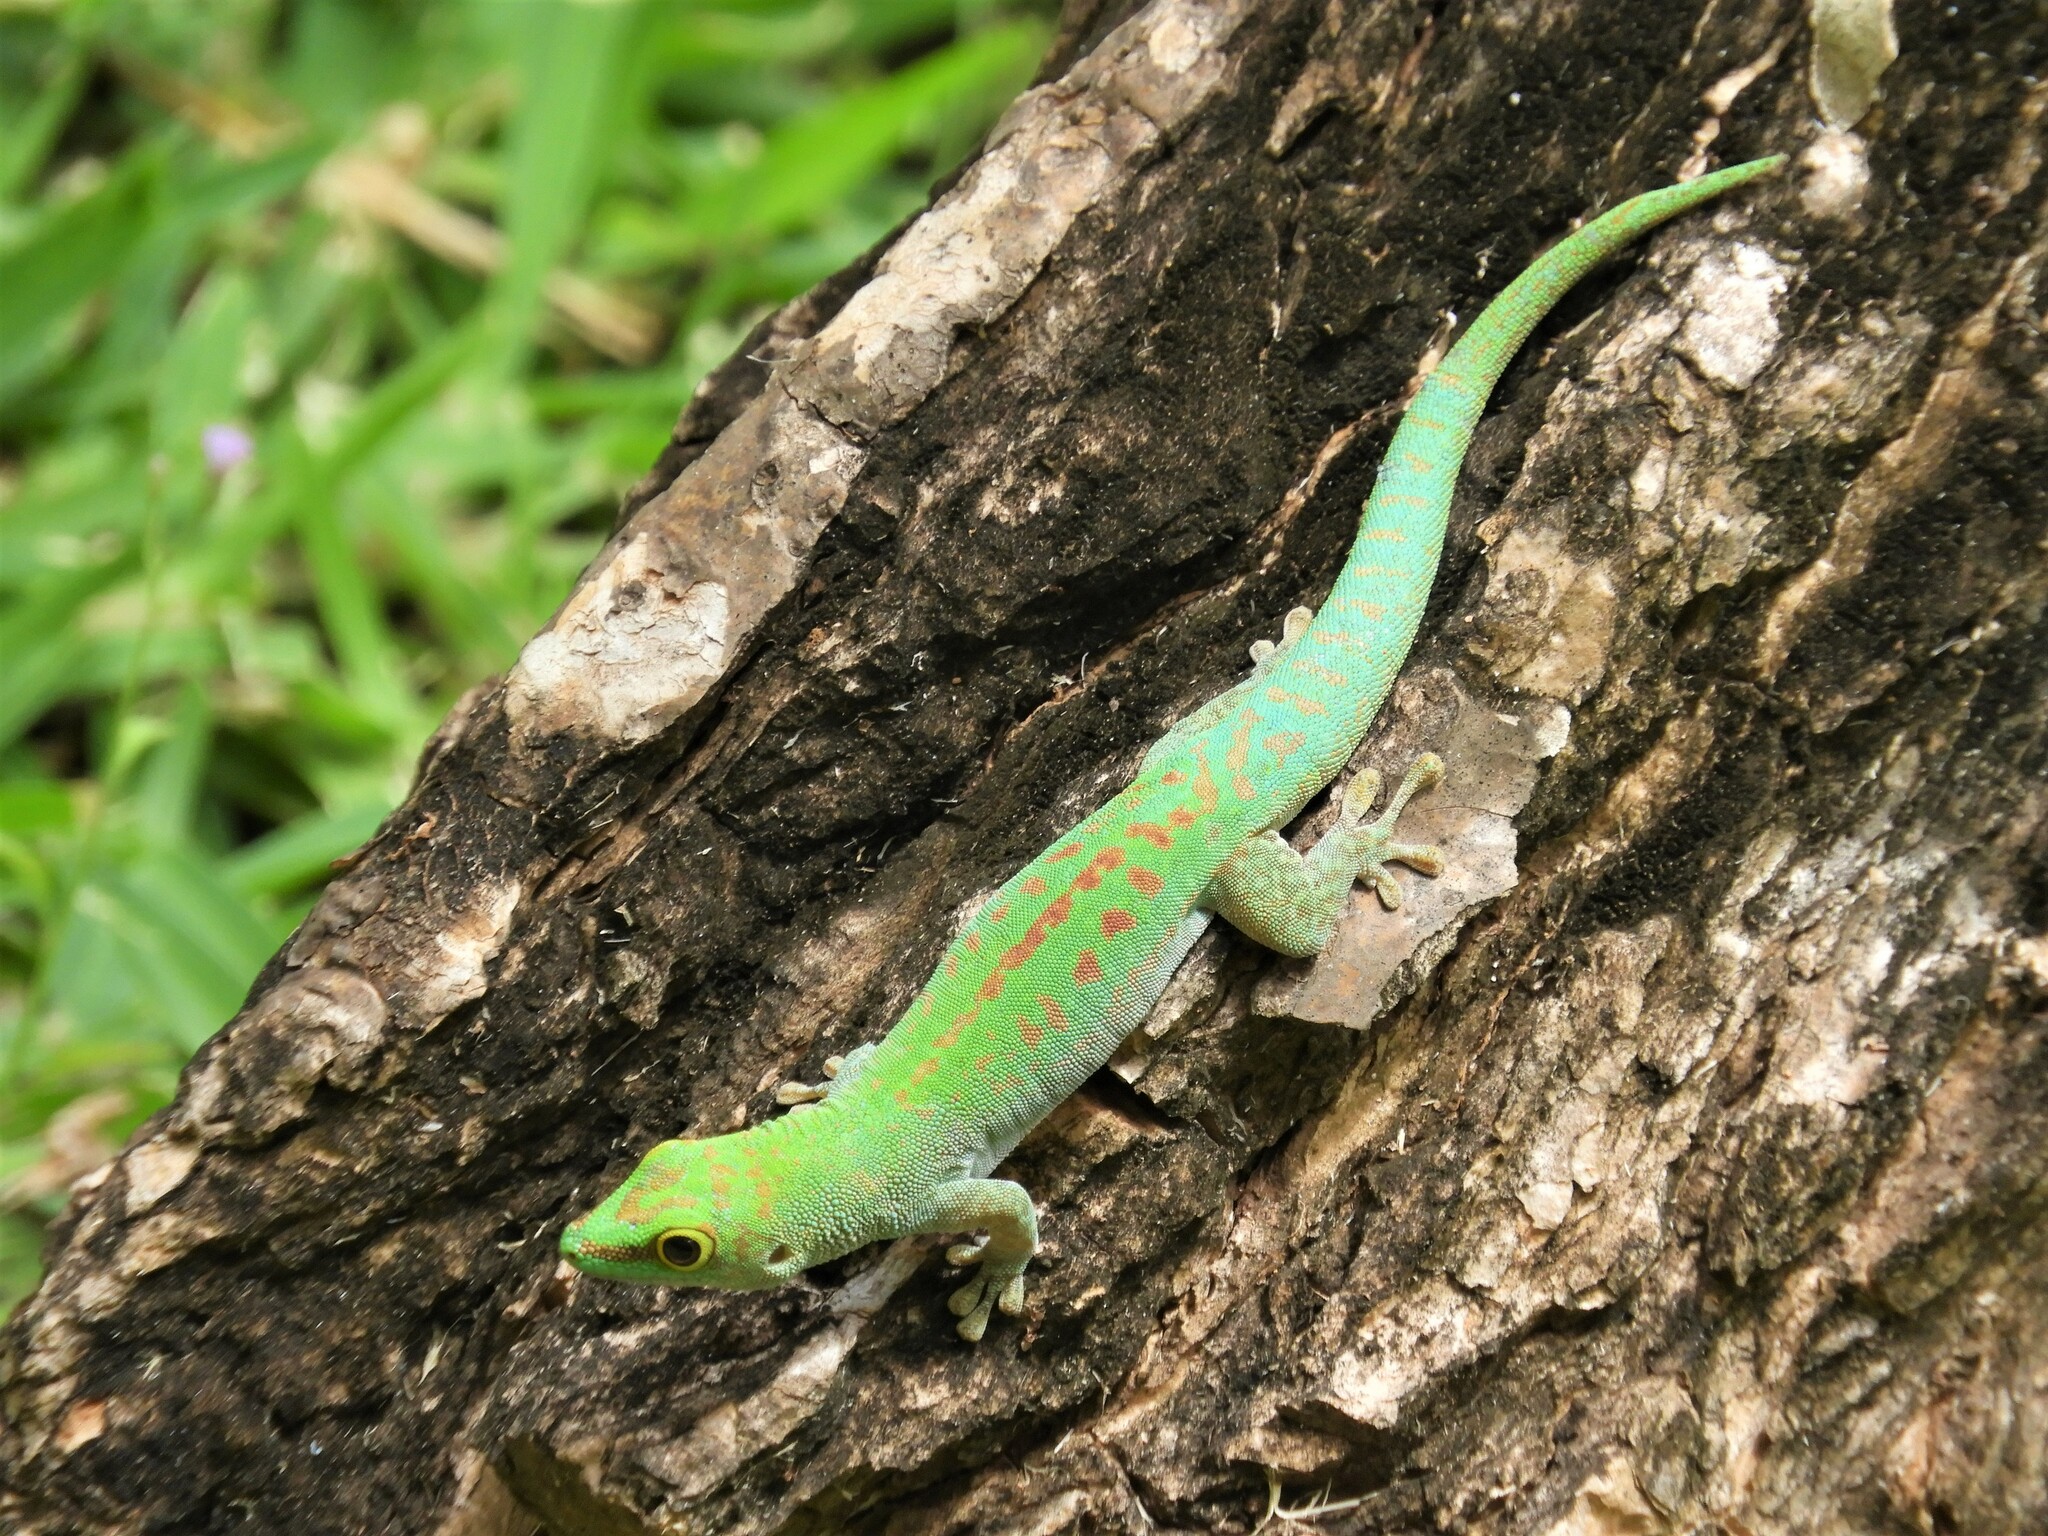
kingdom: Animalia
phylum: Chordata
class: Squamata
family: Gekkonidae
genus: Phelsuma
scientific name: Phelsuma sundbergi
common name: Seychelles giant day gecko
